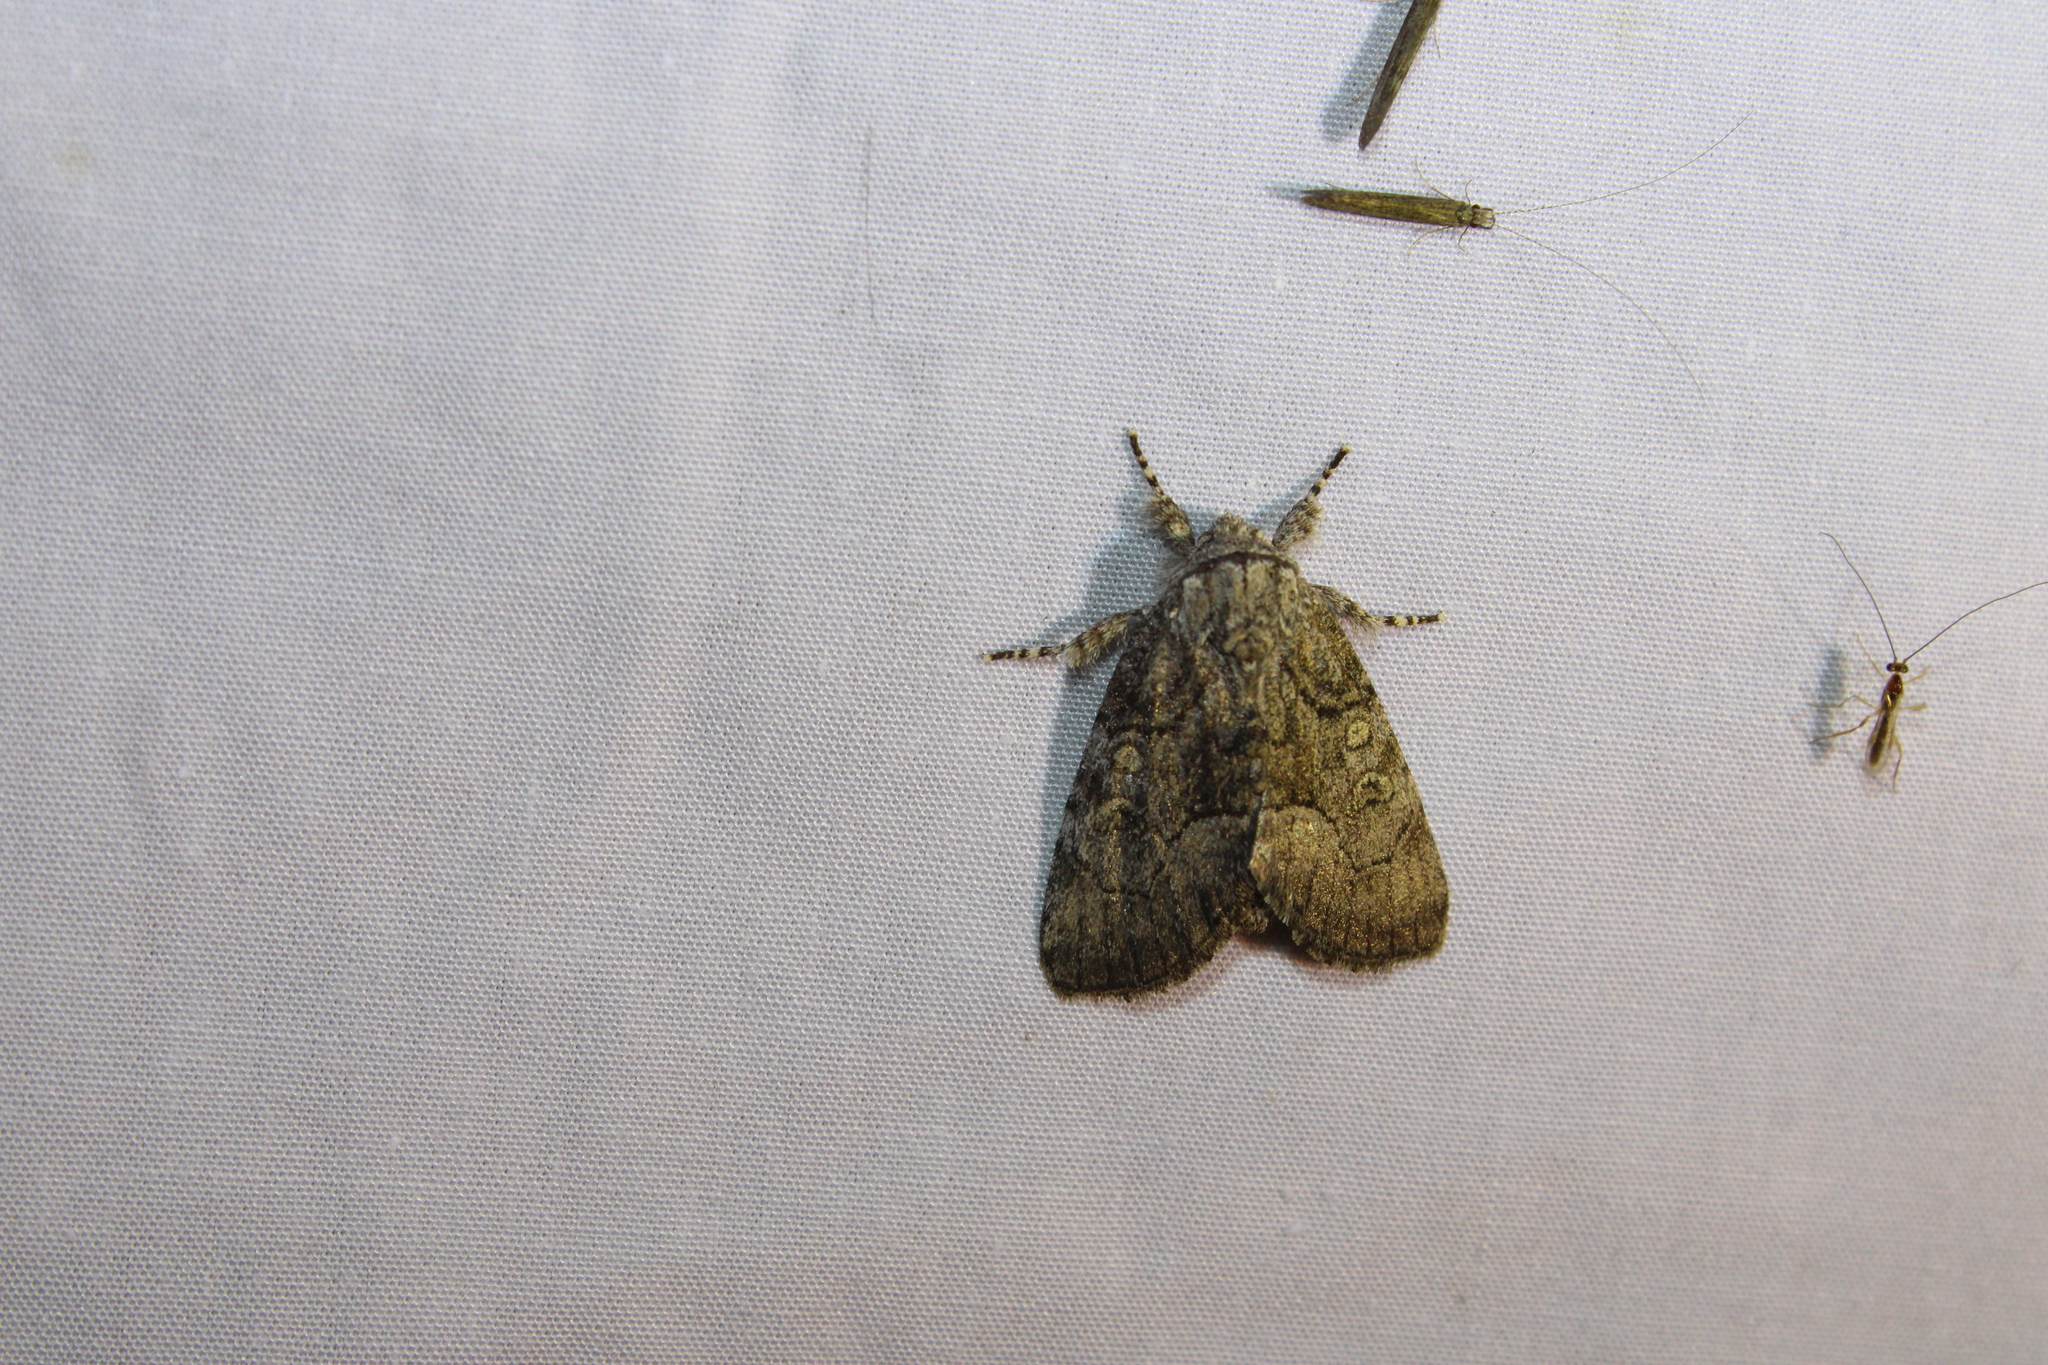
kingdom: Animalia
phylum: Arthropoda
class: Insecta
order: Lepidoptera
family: Noctuidae
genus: Raphia
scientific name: Raphia frater
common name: Brother
